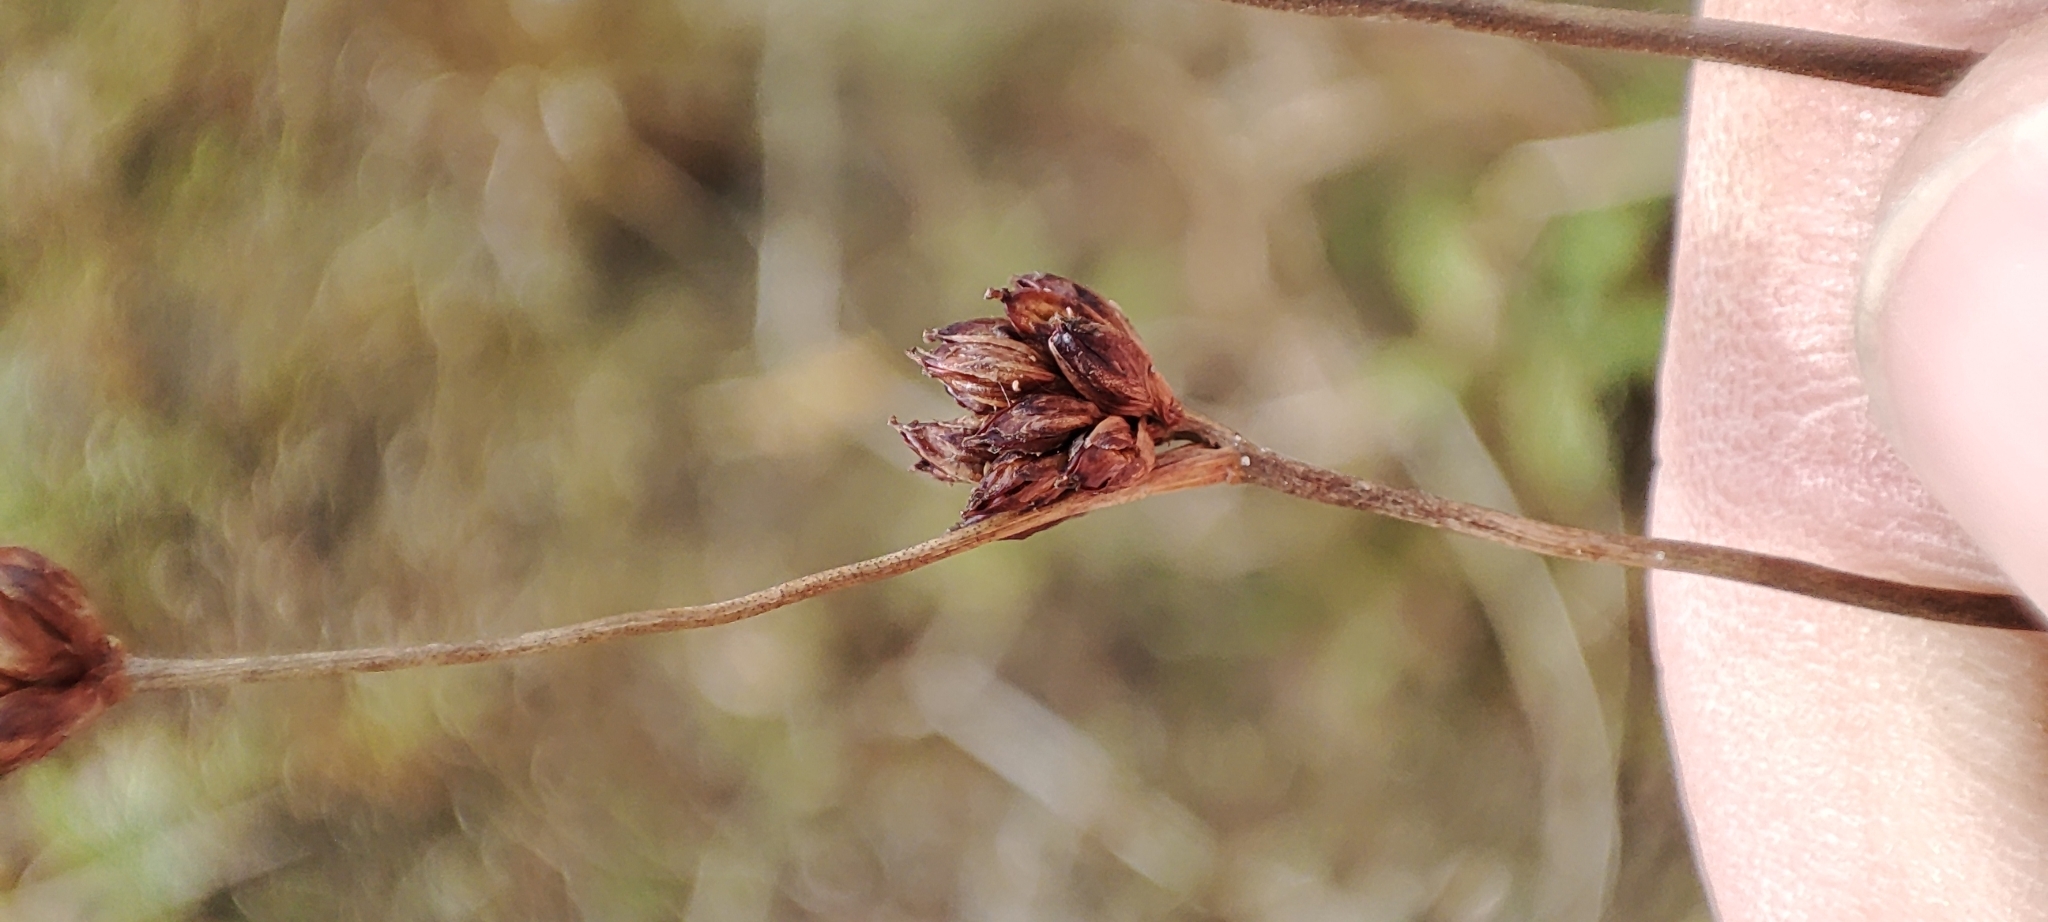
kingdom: Plantae
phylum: Tracheophyta
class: Liliopsida
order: Poales
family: Juncaceae
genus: Juncus
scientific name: Juncus alpinoarticulatus
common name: Alpine rush
